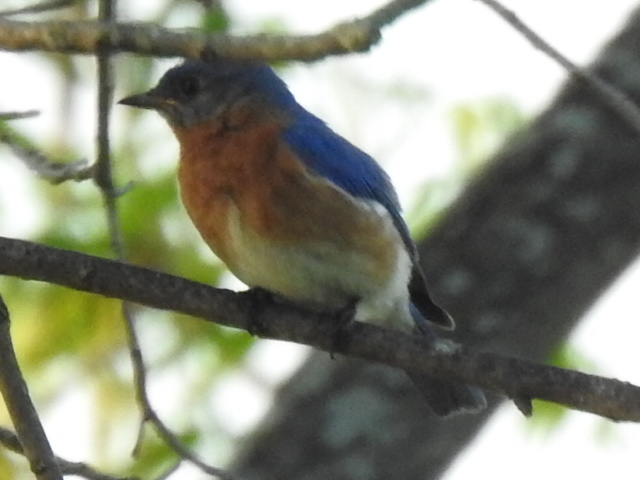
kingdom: Animalia
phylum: Chordata
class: Aves
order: Passeriformes
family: Turdidae
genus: Sialia
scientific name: Sialia sialis
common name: Eastern bluebird
